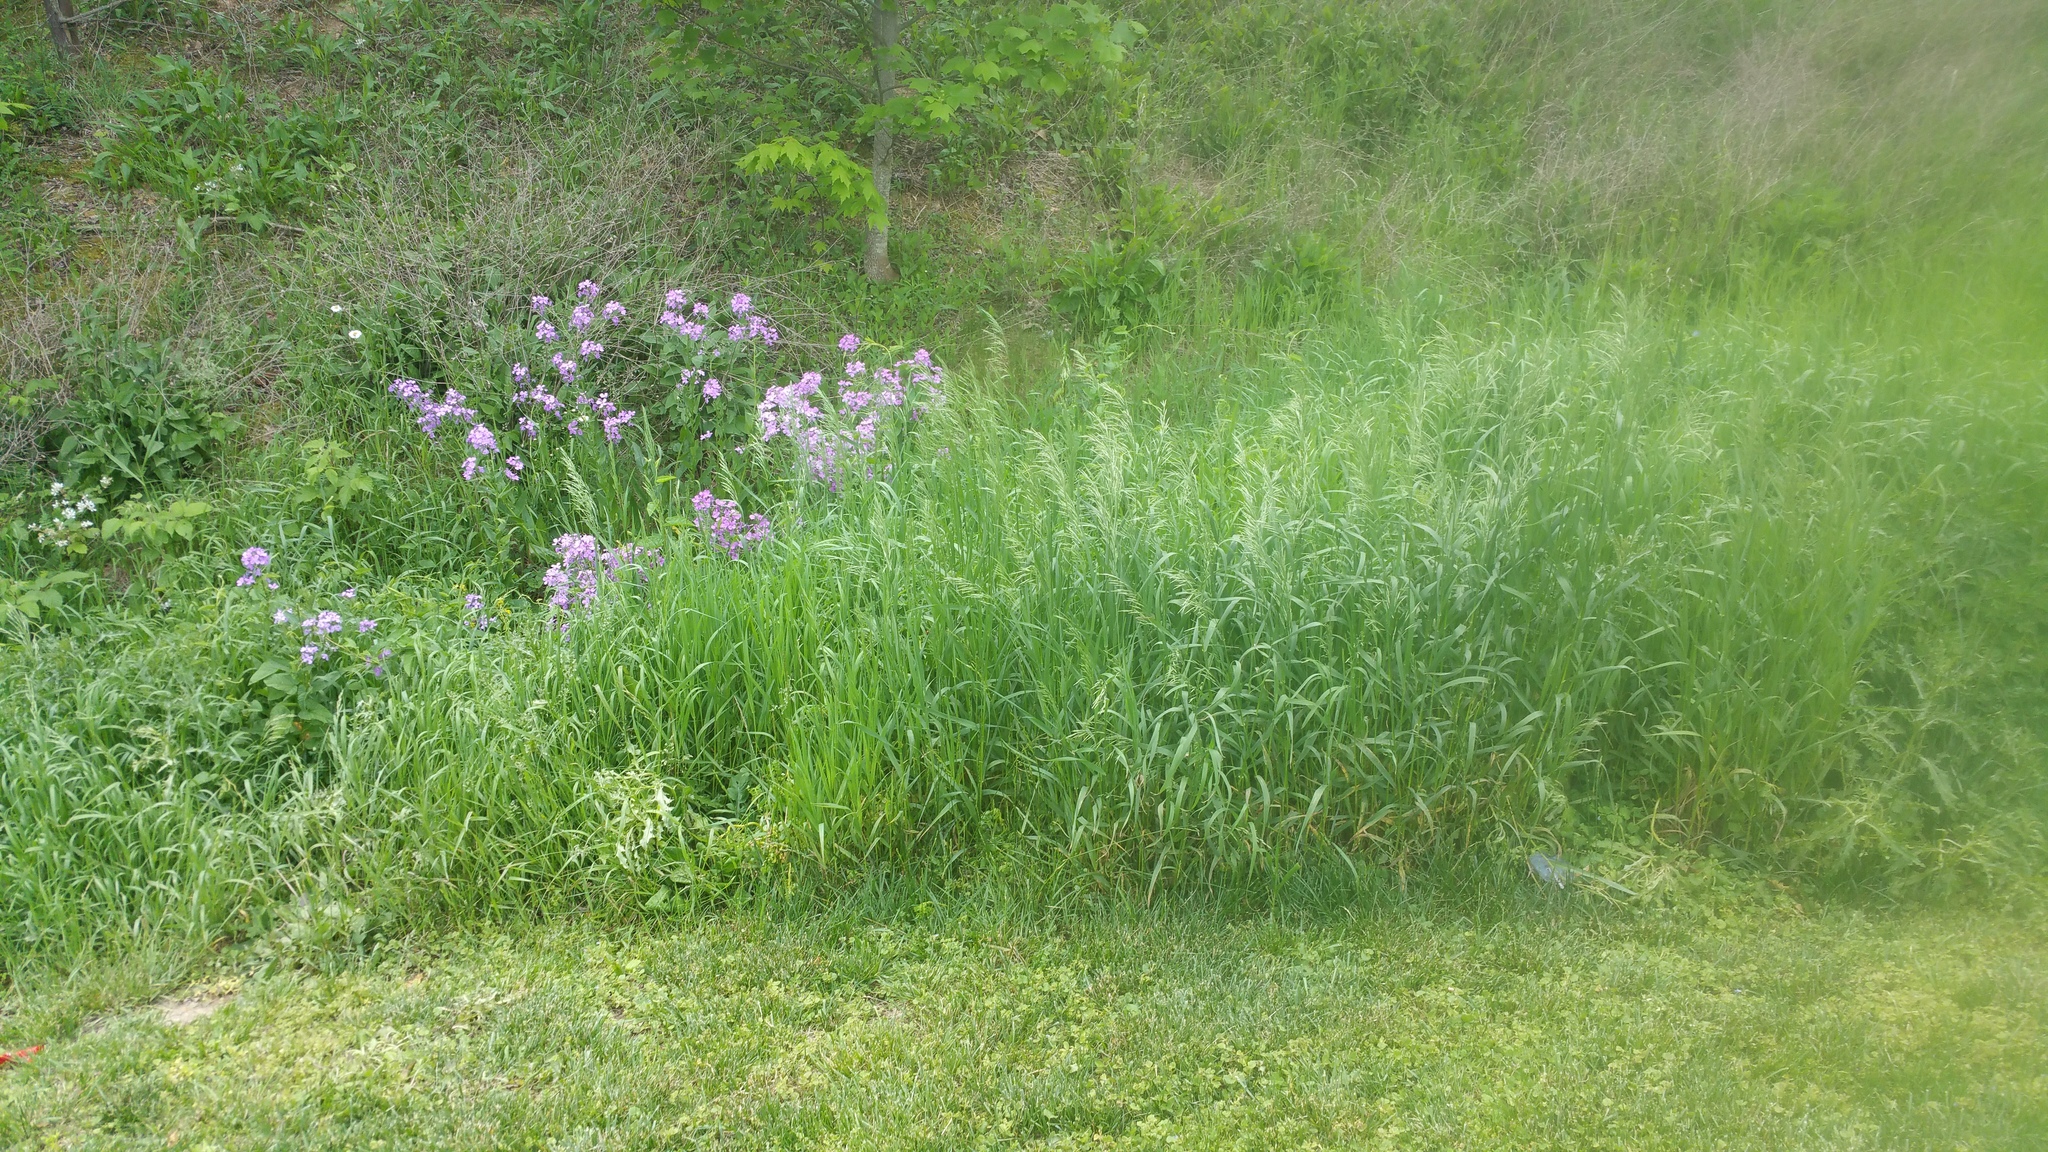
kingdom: Plantae
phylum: Tracheophyta
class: Magnoliopsida
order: Brassicales
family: Brassicaceae
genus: Hesperis
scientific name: Hesperis matronalis
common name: Dame's-violet
